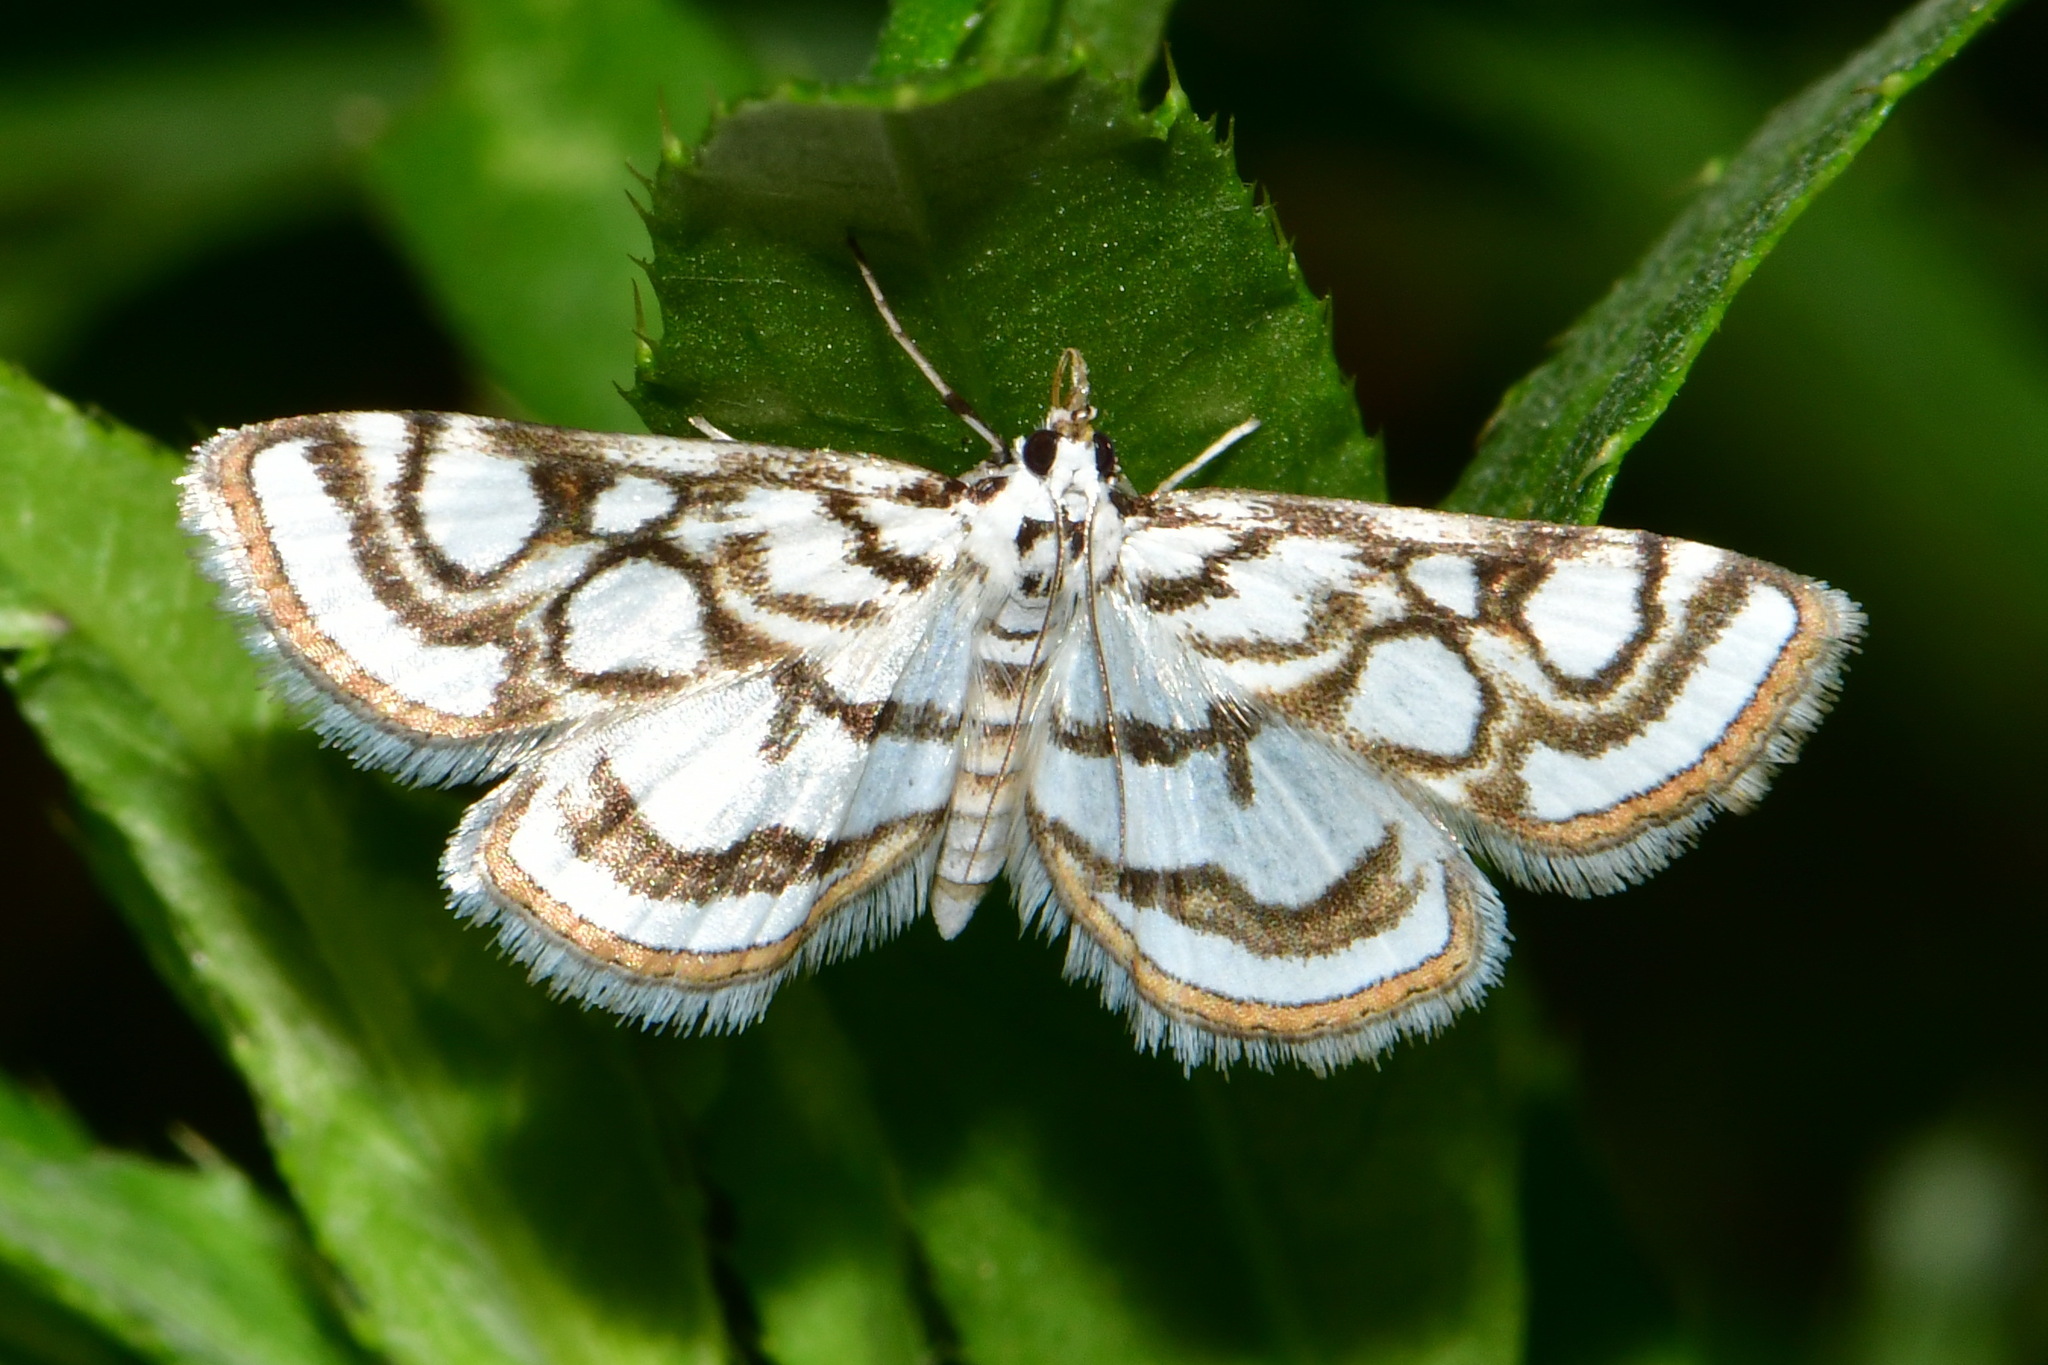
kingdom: Animalia
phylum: Arthropoda
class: Insecta
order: Lepidoptera
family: Crambidae
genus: Nymphula
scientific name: Nymphula nitidulata
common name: Beautiful china mark
